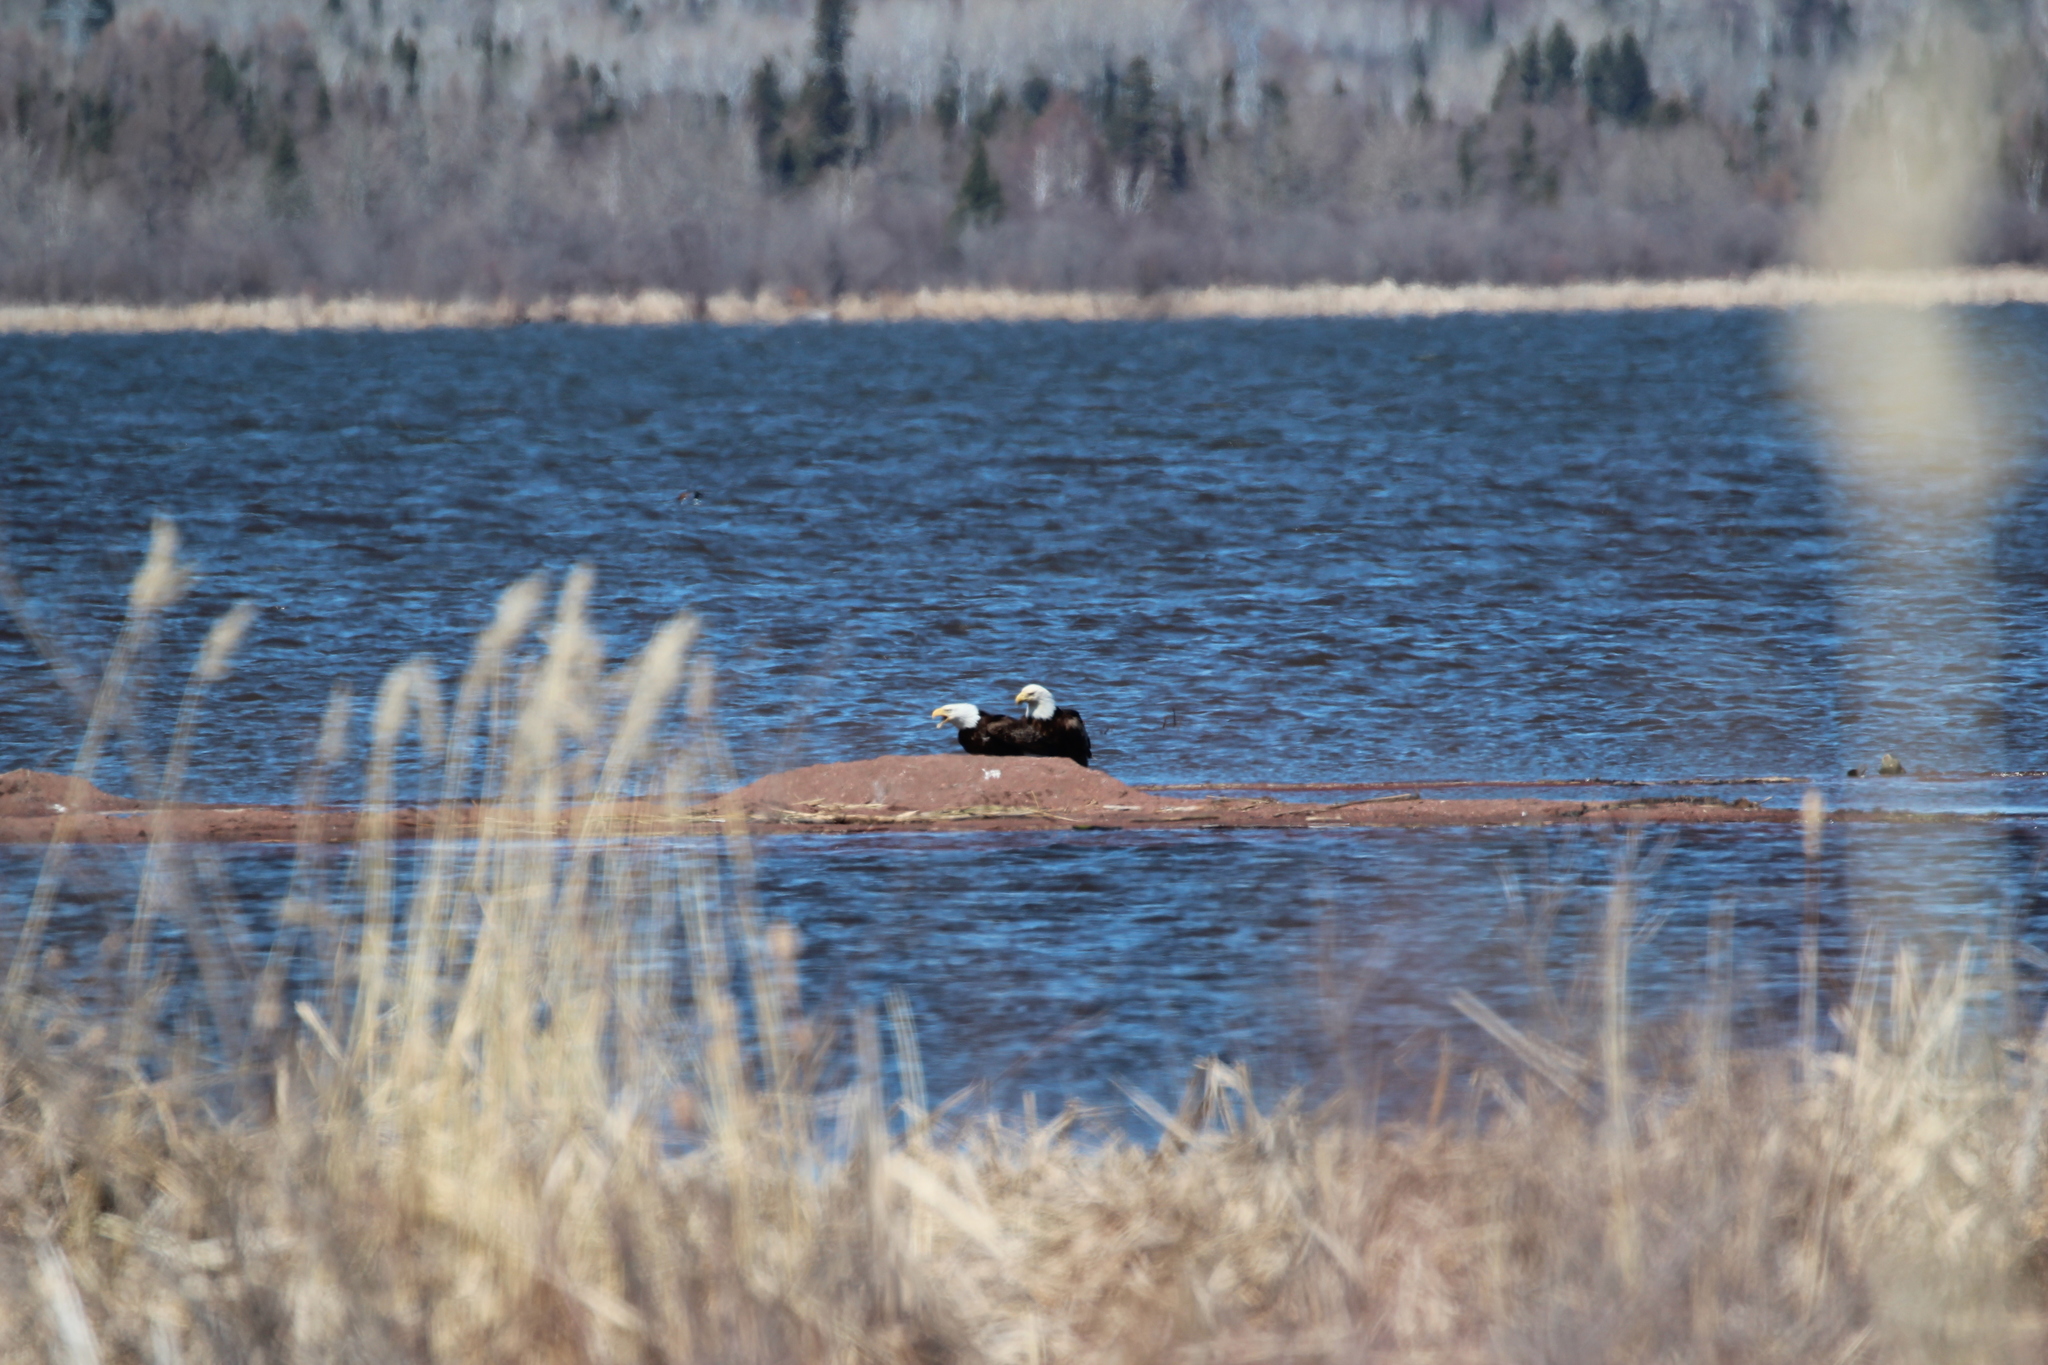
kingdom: Animalia
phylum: Chordata
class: Aves
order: Accipitriformes
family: Accipitridae
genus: Haliaeetus
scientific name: Haliaeetus leucocephalus
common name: Bald eagle
